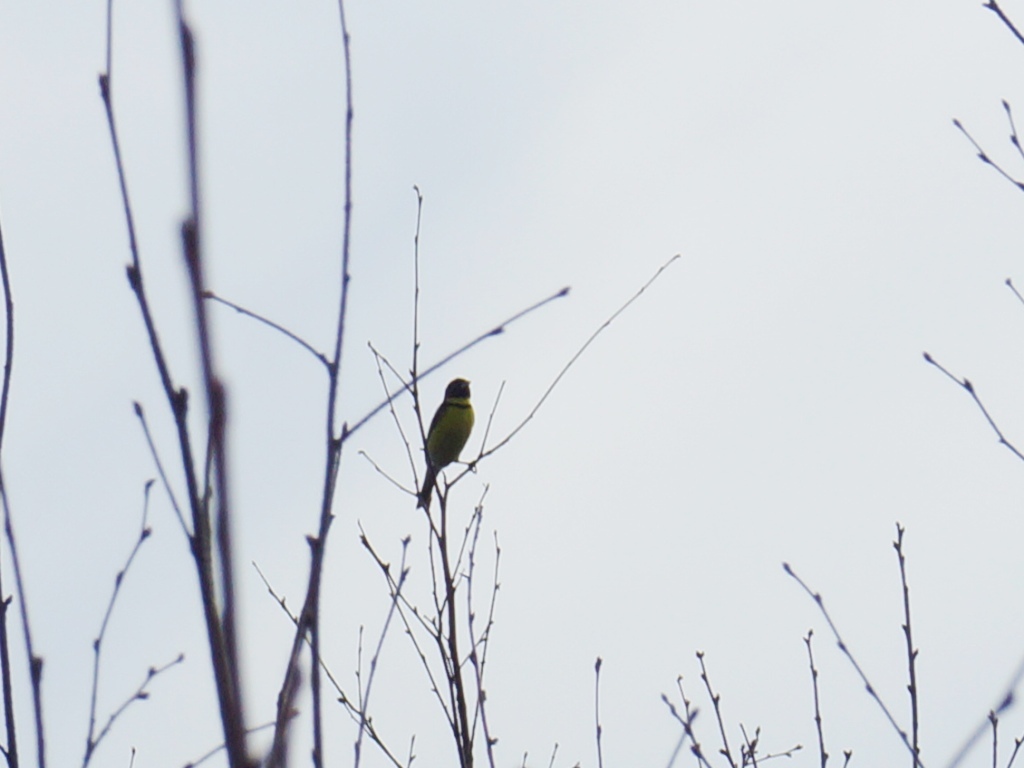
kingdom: Animalia
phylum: Chordata
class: Aves
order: Passeriformes
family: Emberizidae
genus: Emberiza
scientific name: Emberiza aureola
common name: Yellow-breasted bunting
